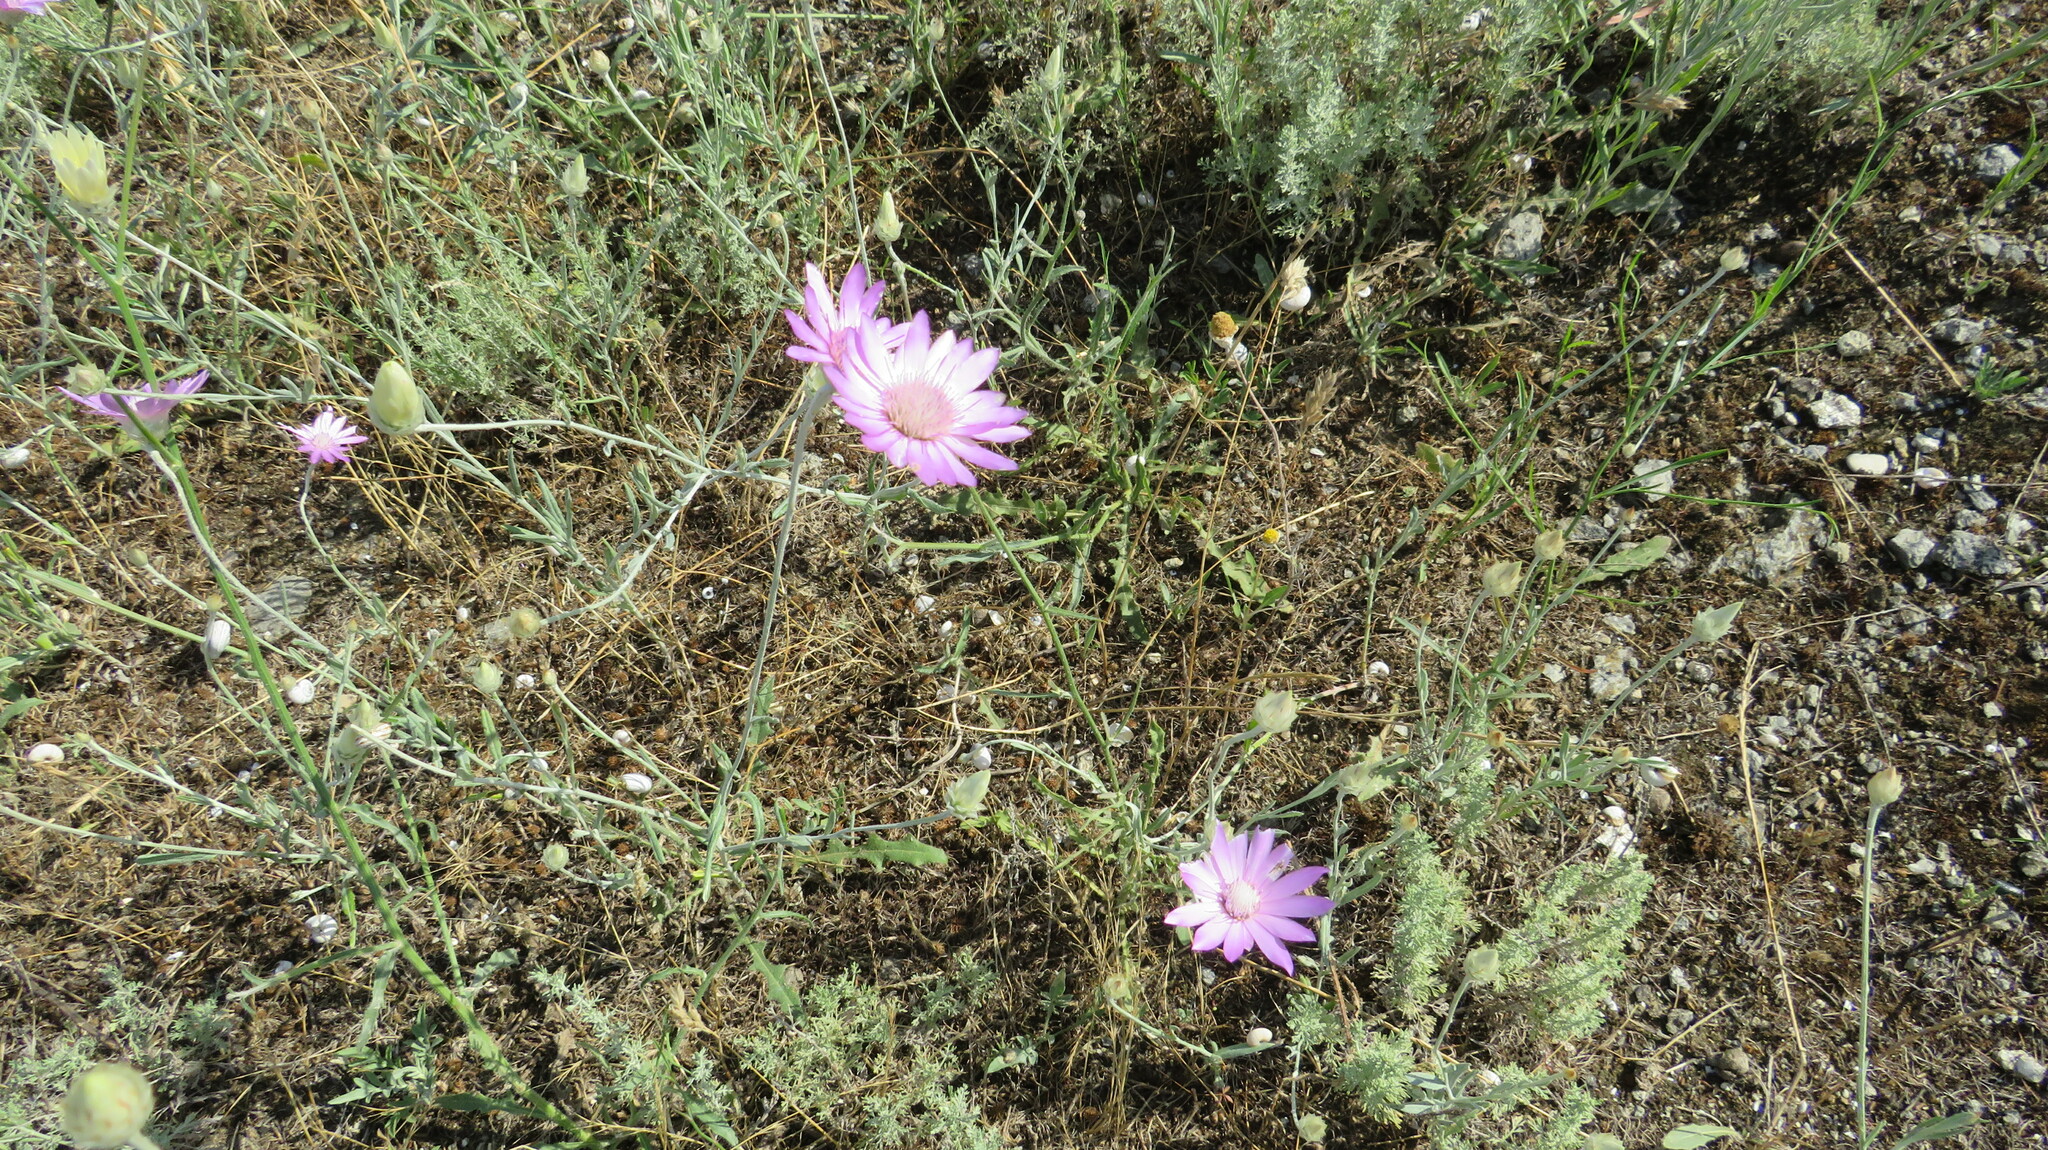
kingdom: Plantae
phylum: Tracheophyta
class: Magnoliopsida
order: Asterales
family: Asteraceae
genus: Xeranthemum
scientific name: Xeranthemum annuum
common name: Immortelle
